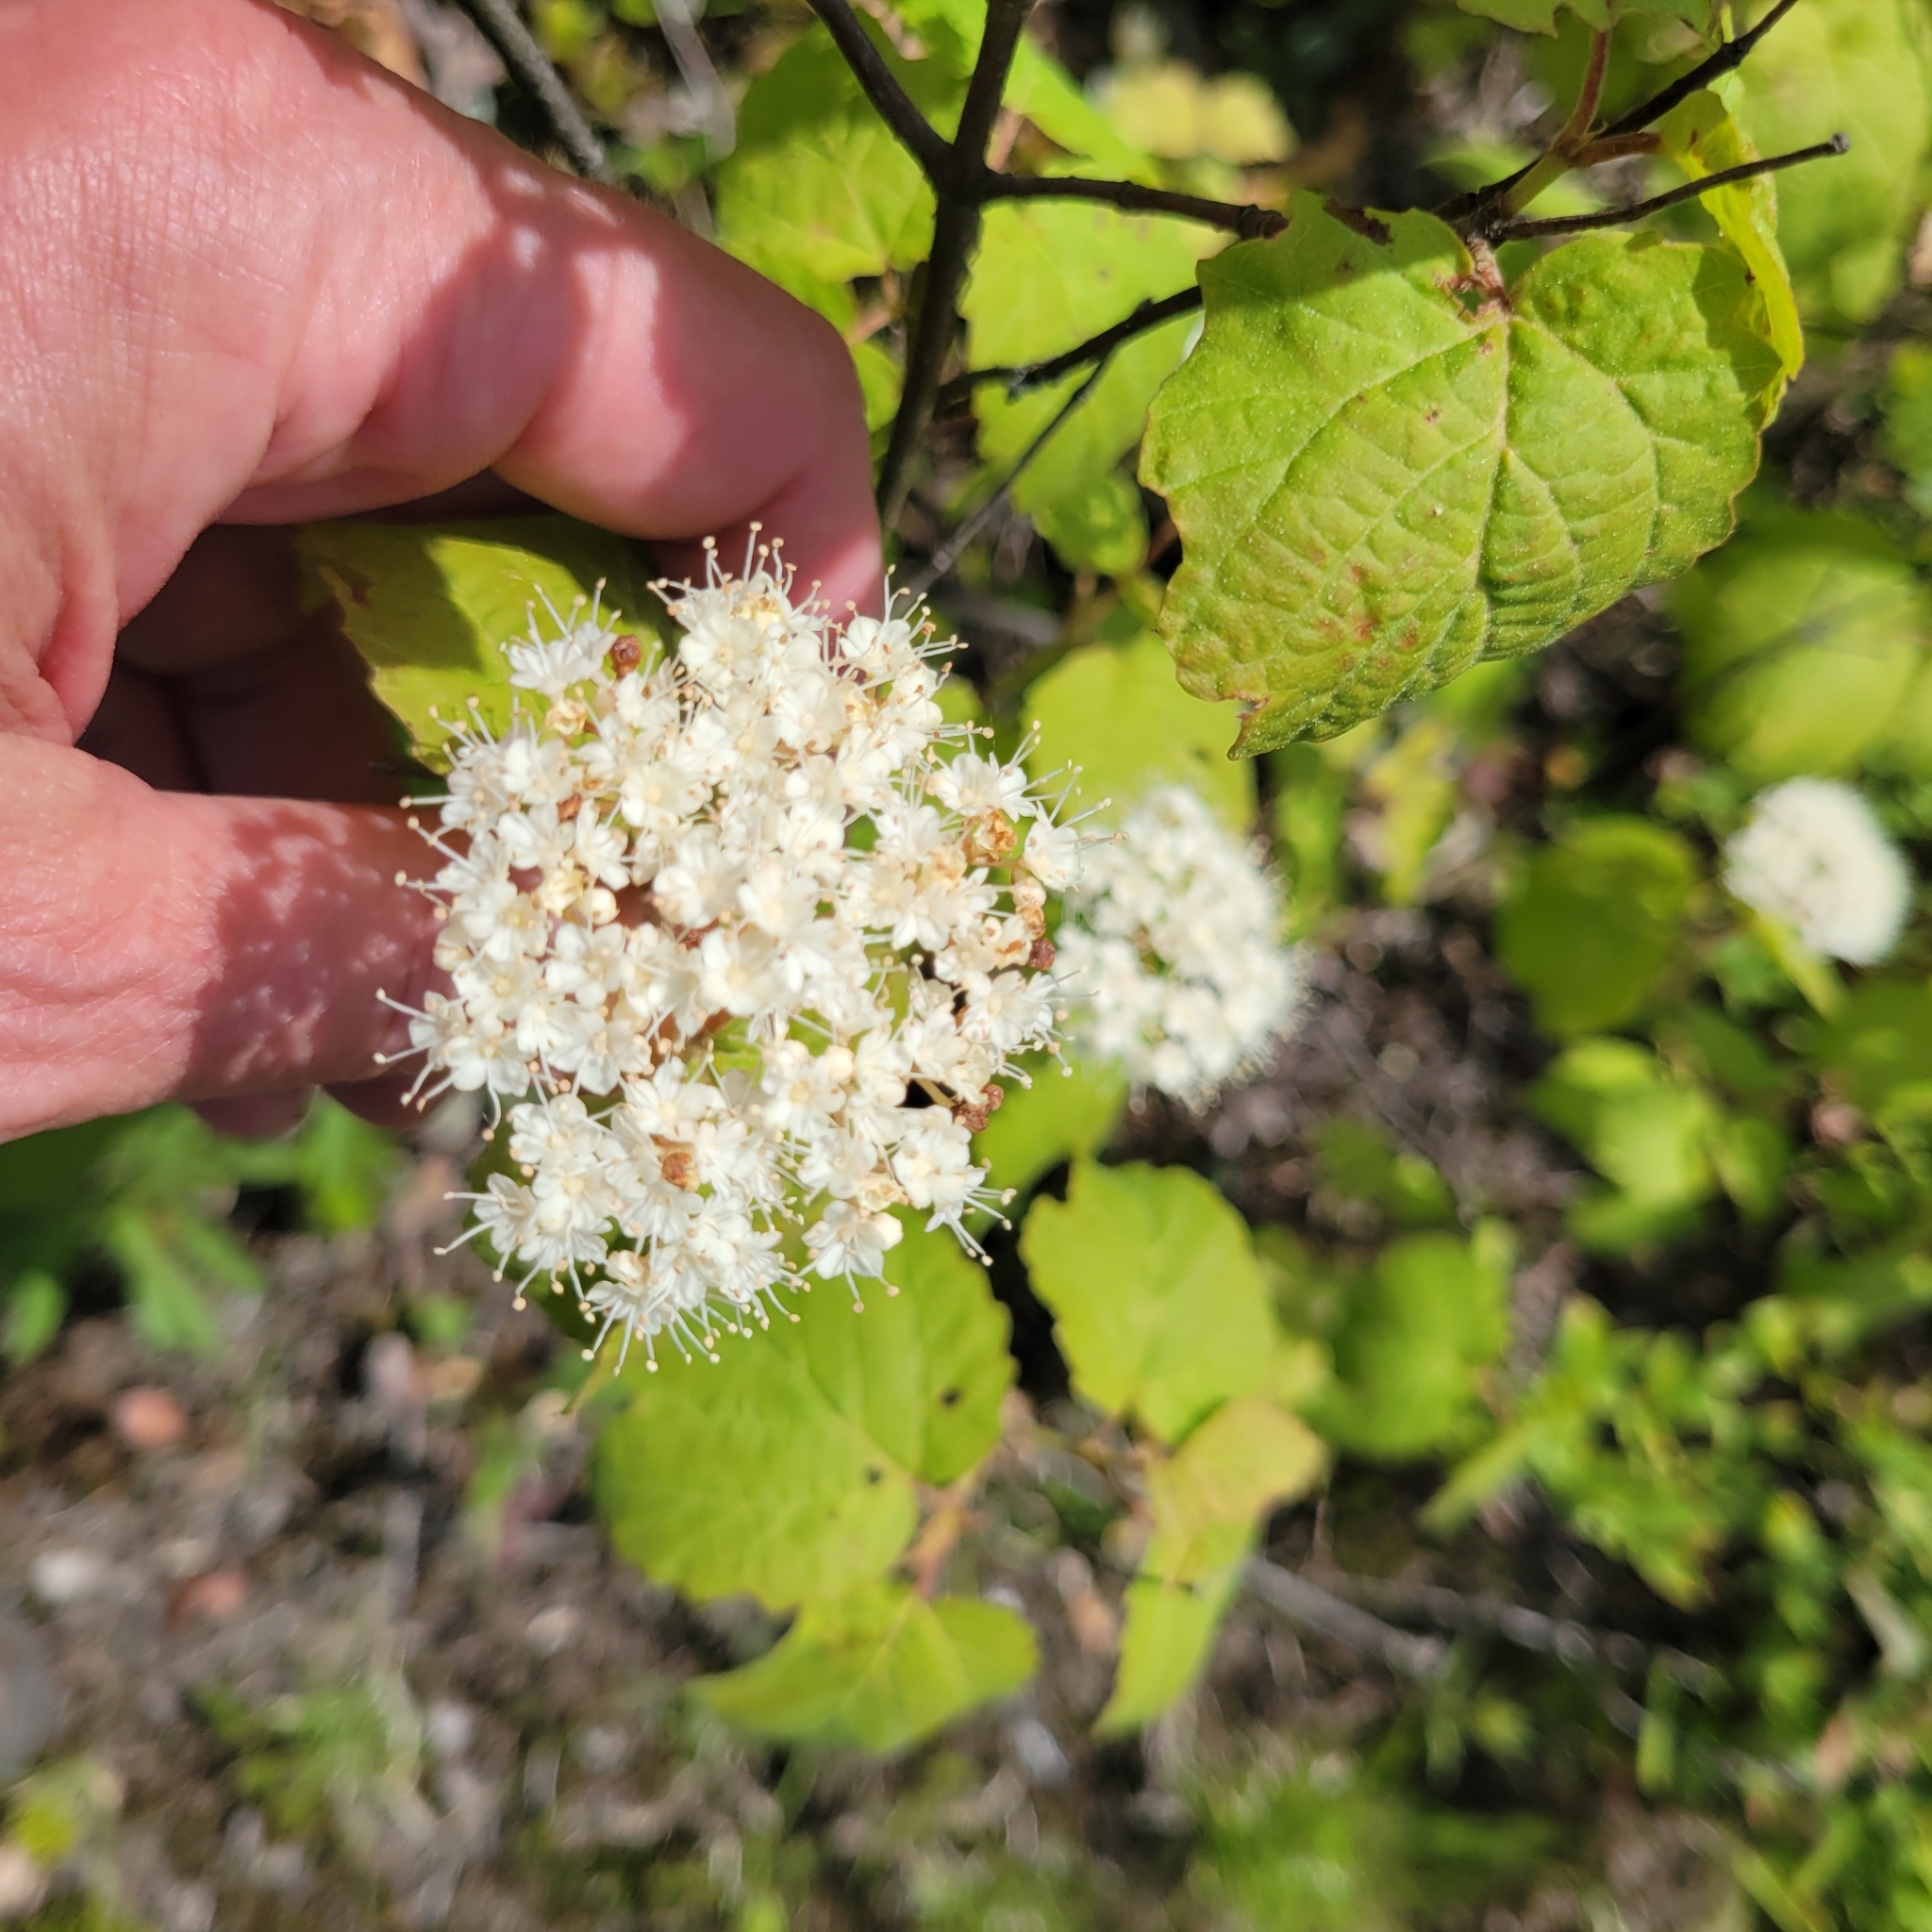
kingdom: Plantae
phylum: Tracheophyta
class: Magnoliopsida
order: Dipsacales
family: Viburnaceae
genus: Viburnum
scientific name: Viburnum acerifolium
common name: Dockmackie
